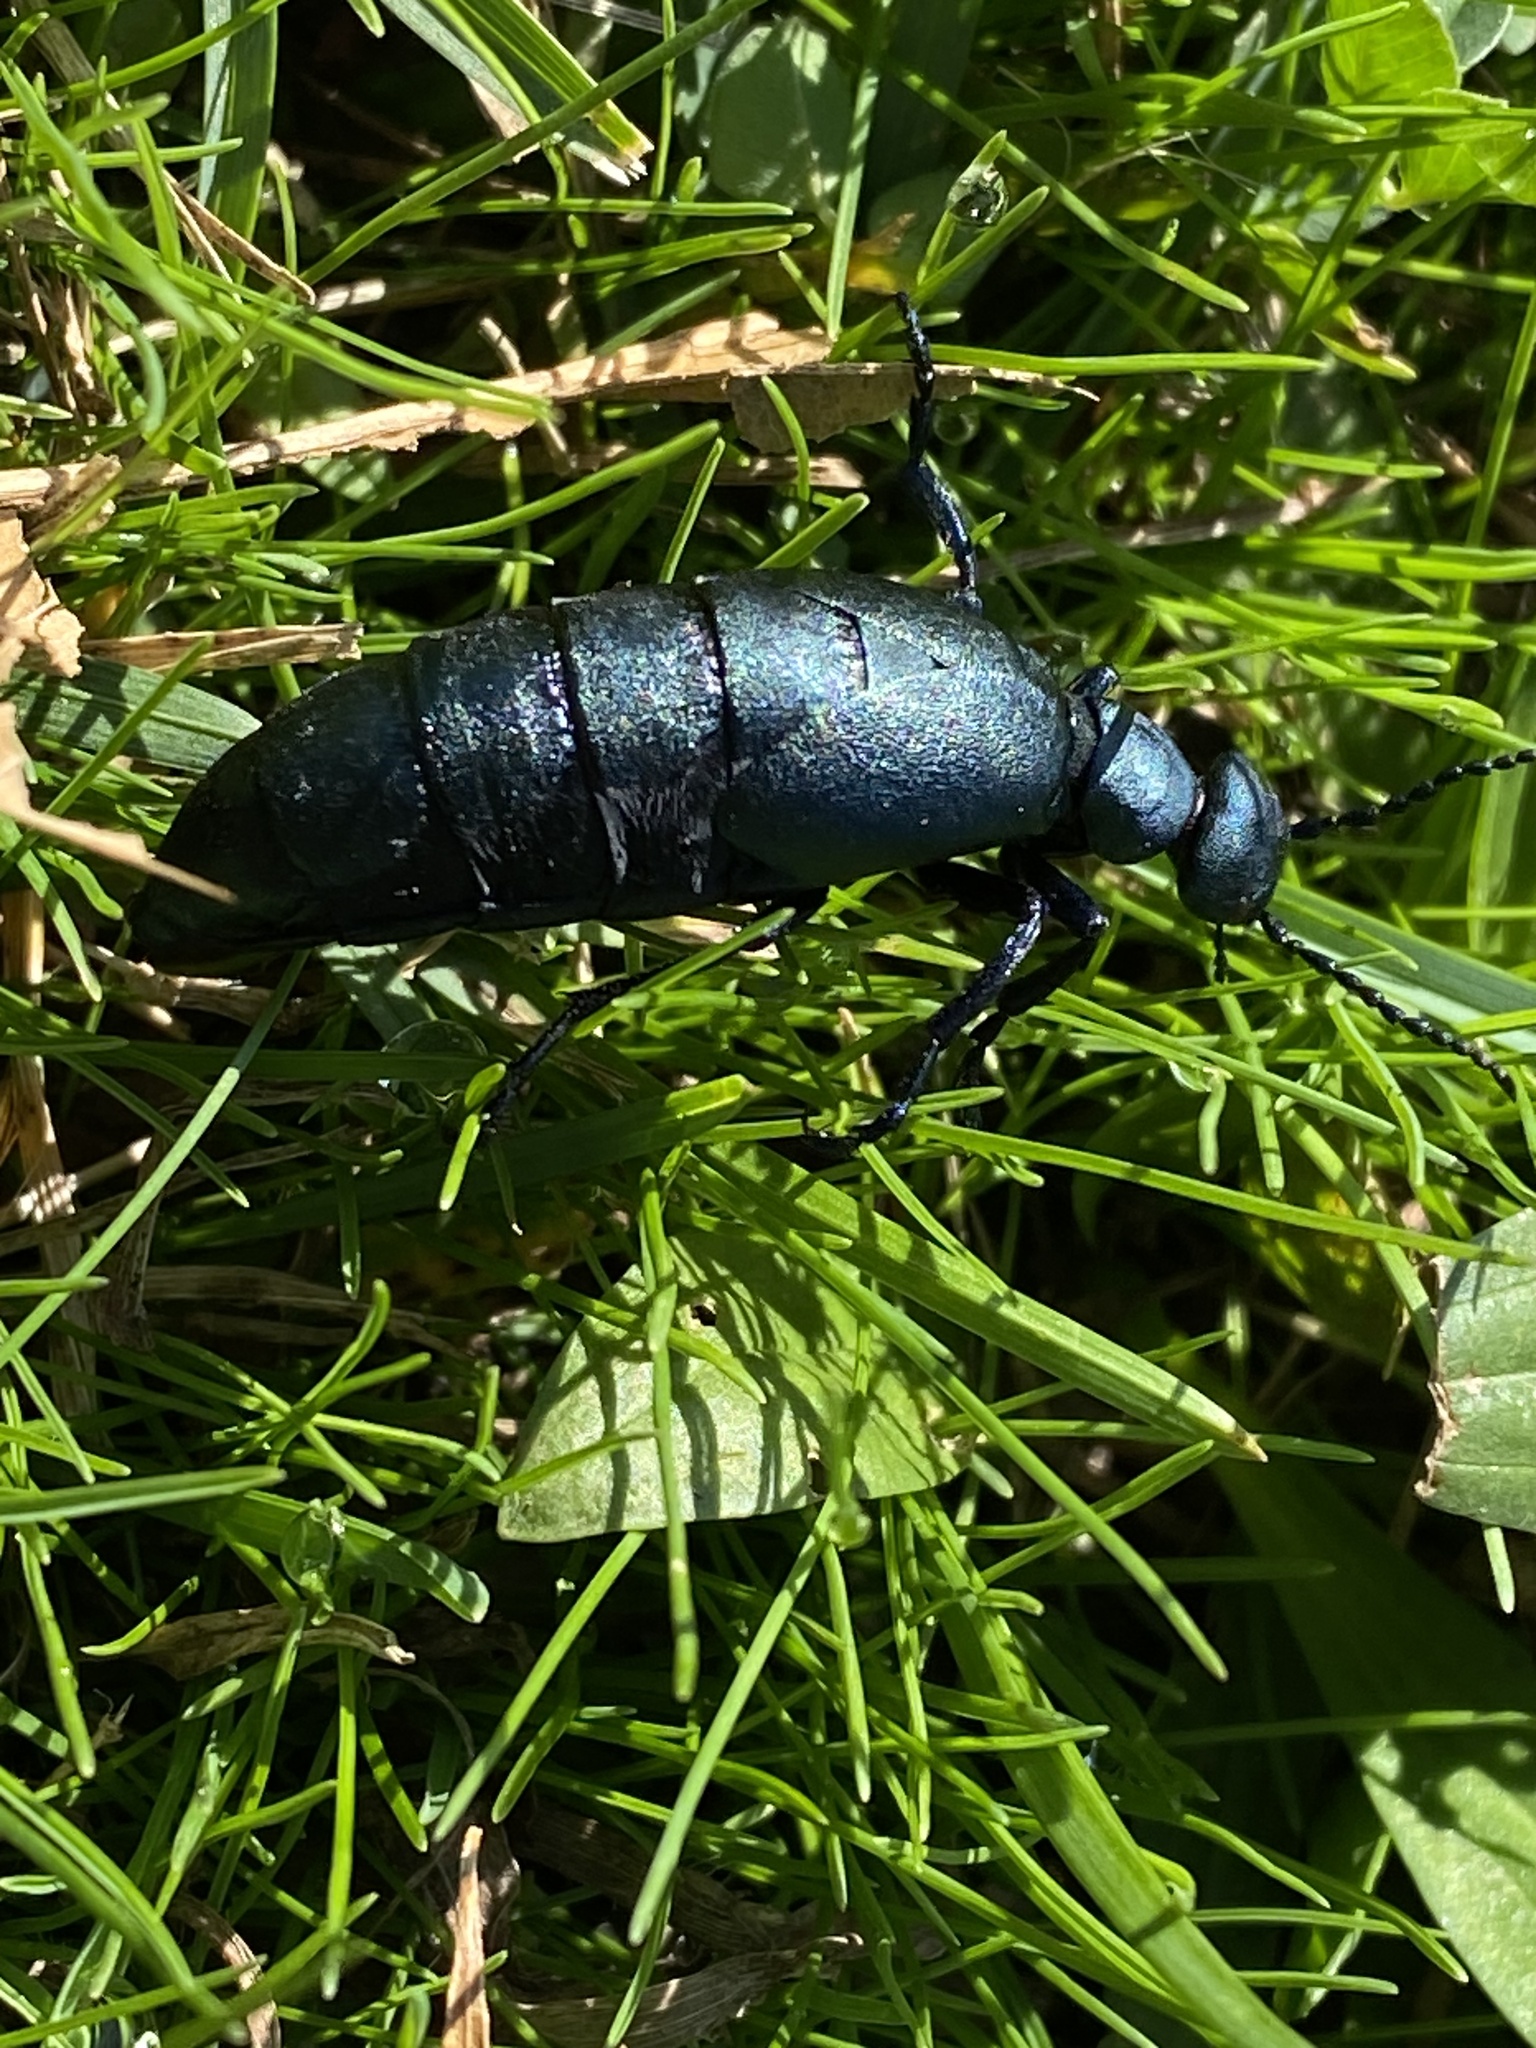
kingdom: Animalia
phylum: Arthropoda
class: Insecta
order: Coleoptera
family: Meloidae
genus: Meloe
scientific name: Meloe campanicollis
